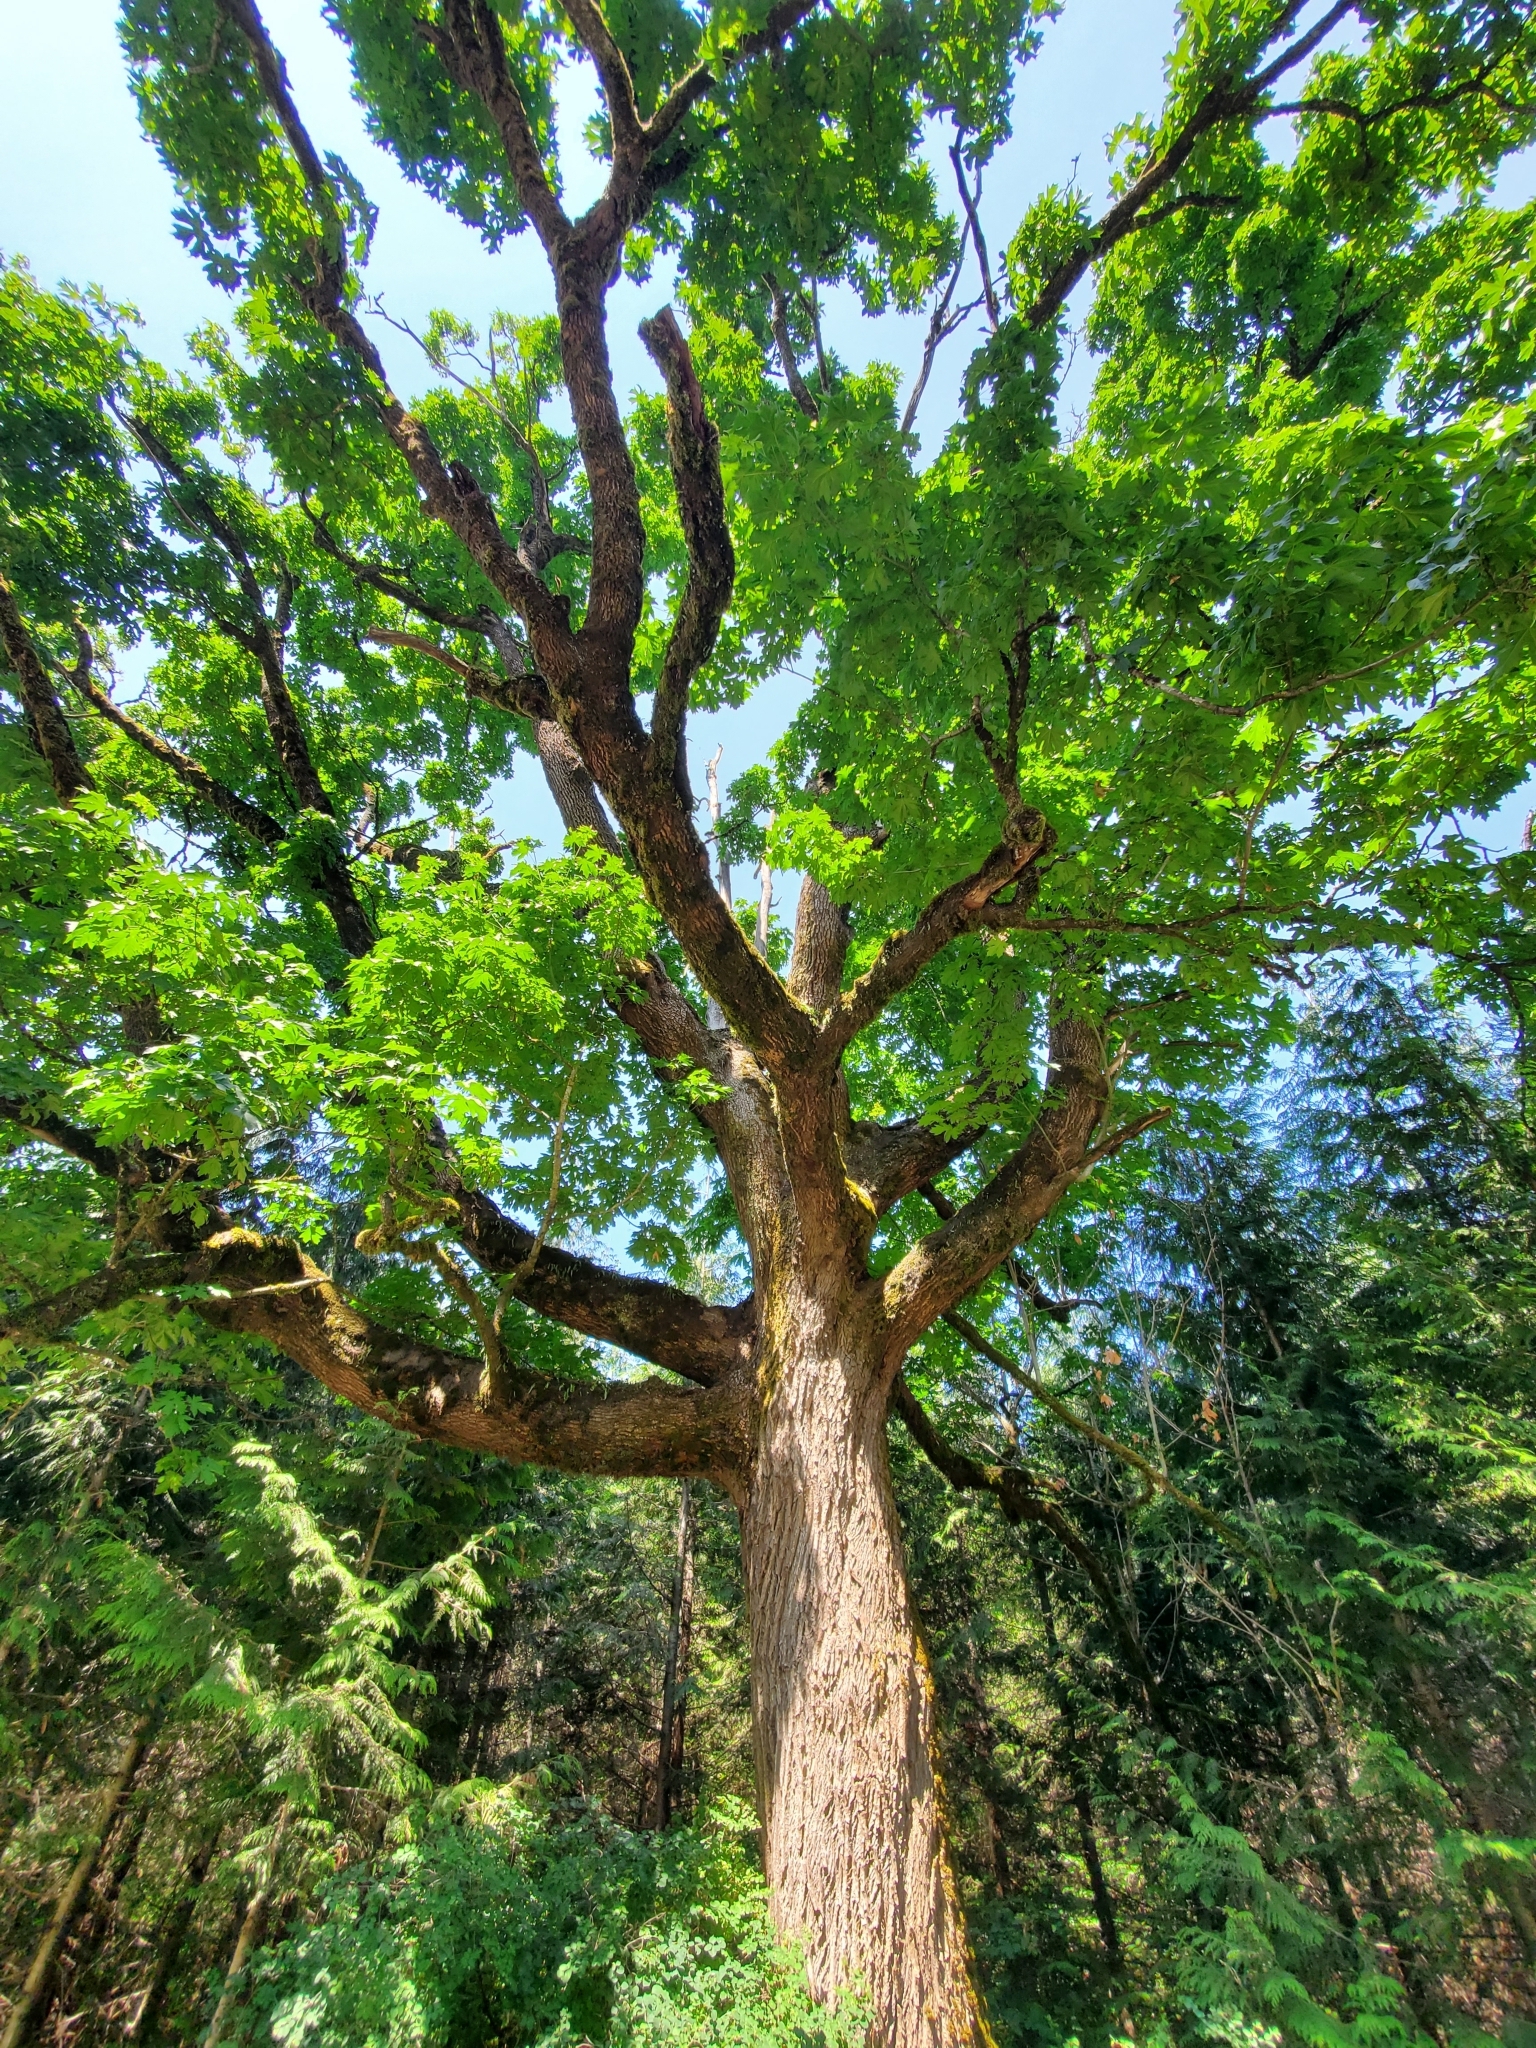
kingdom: Plantae
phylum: Tracheophyta
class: Magnoliopsida
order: Sapindales
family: Sapindaceae
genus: Acer
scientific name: Acer macrophyllum
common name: Oregon maple
